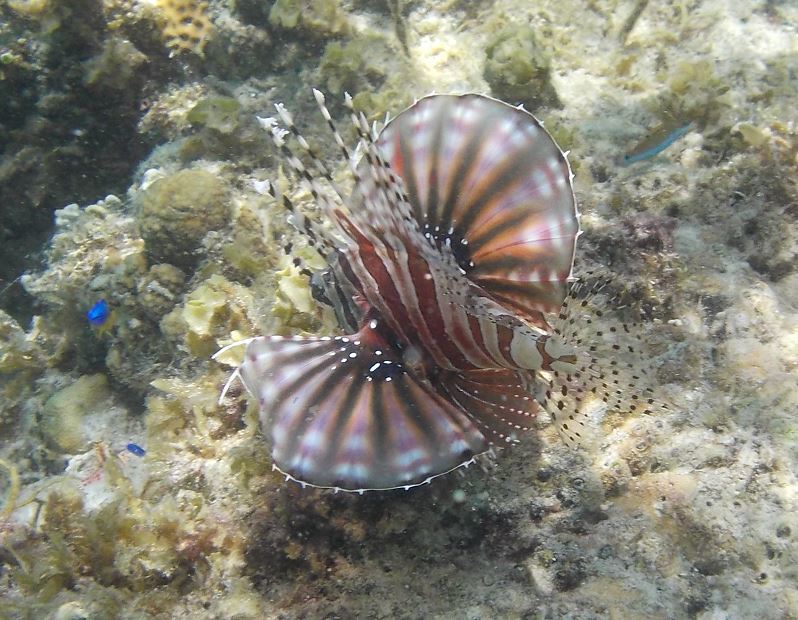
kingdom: Animalia
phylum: Chordata
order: Scorpaeniformes
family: Scorpaenidae
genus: Dendrochirus
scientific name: Dendrochirus zebra
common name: Zebra lionfish
